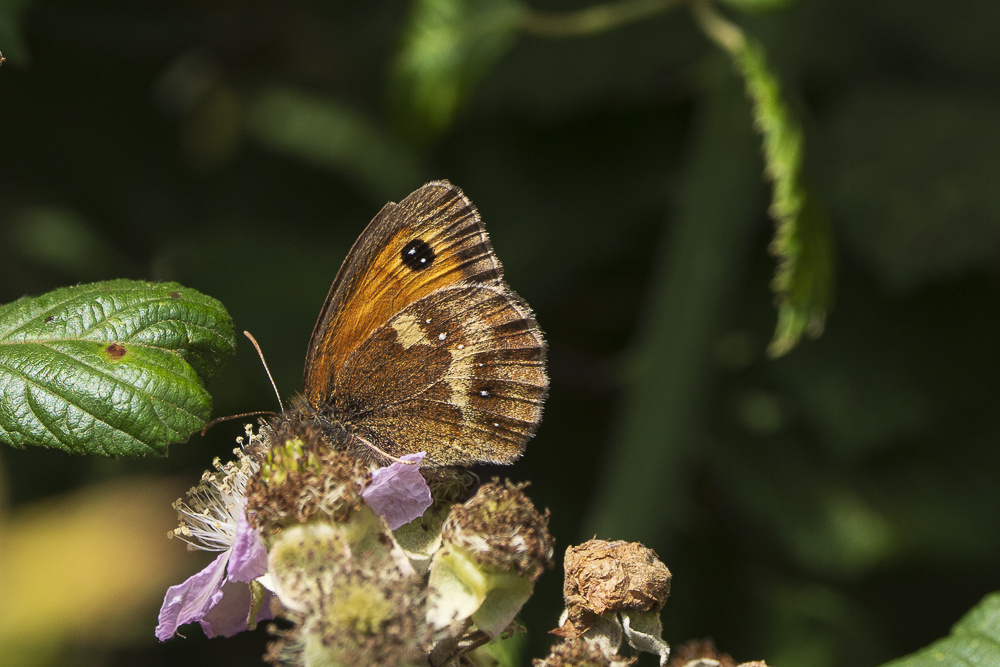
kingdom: Animalia
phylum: Arthropoda
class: Insecta
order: Lepidoptera
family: Nymphalidae
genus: Pyronia
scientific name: Pyronia tithonus
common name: Gatekeeper
